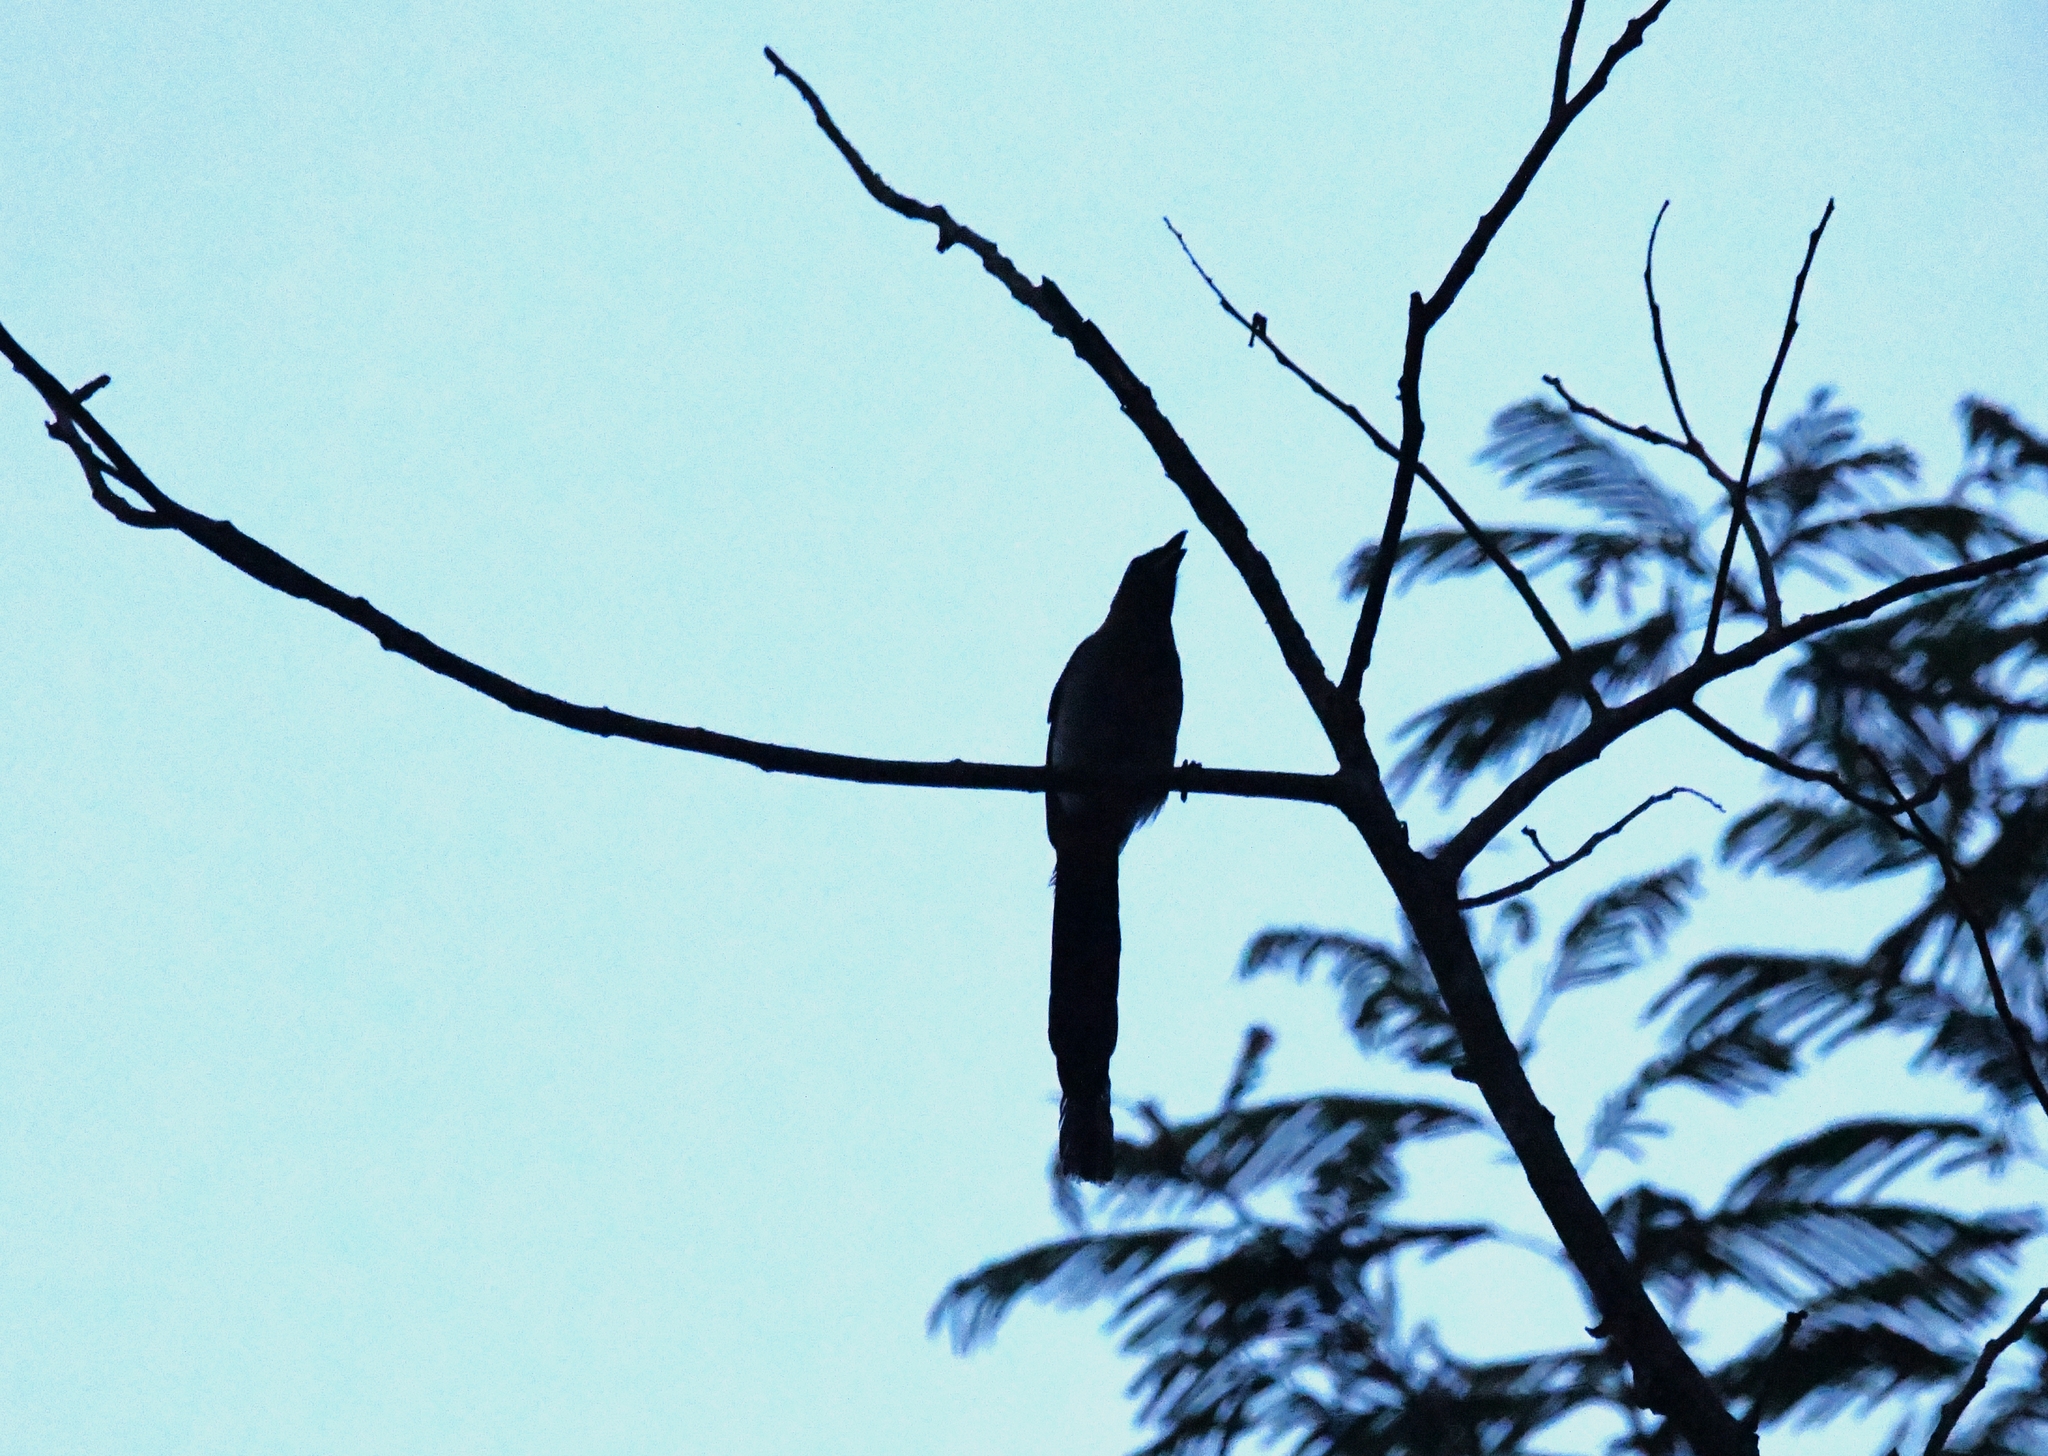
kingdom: Animalia
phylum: Chordata
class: Aves
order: Passeriformes
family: Corvidae
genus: Dendrocitta
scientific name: Dendrocitta formosae
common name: Grey treepie
